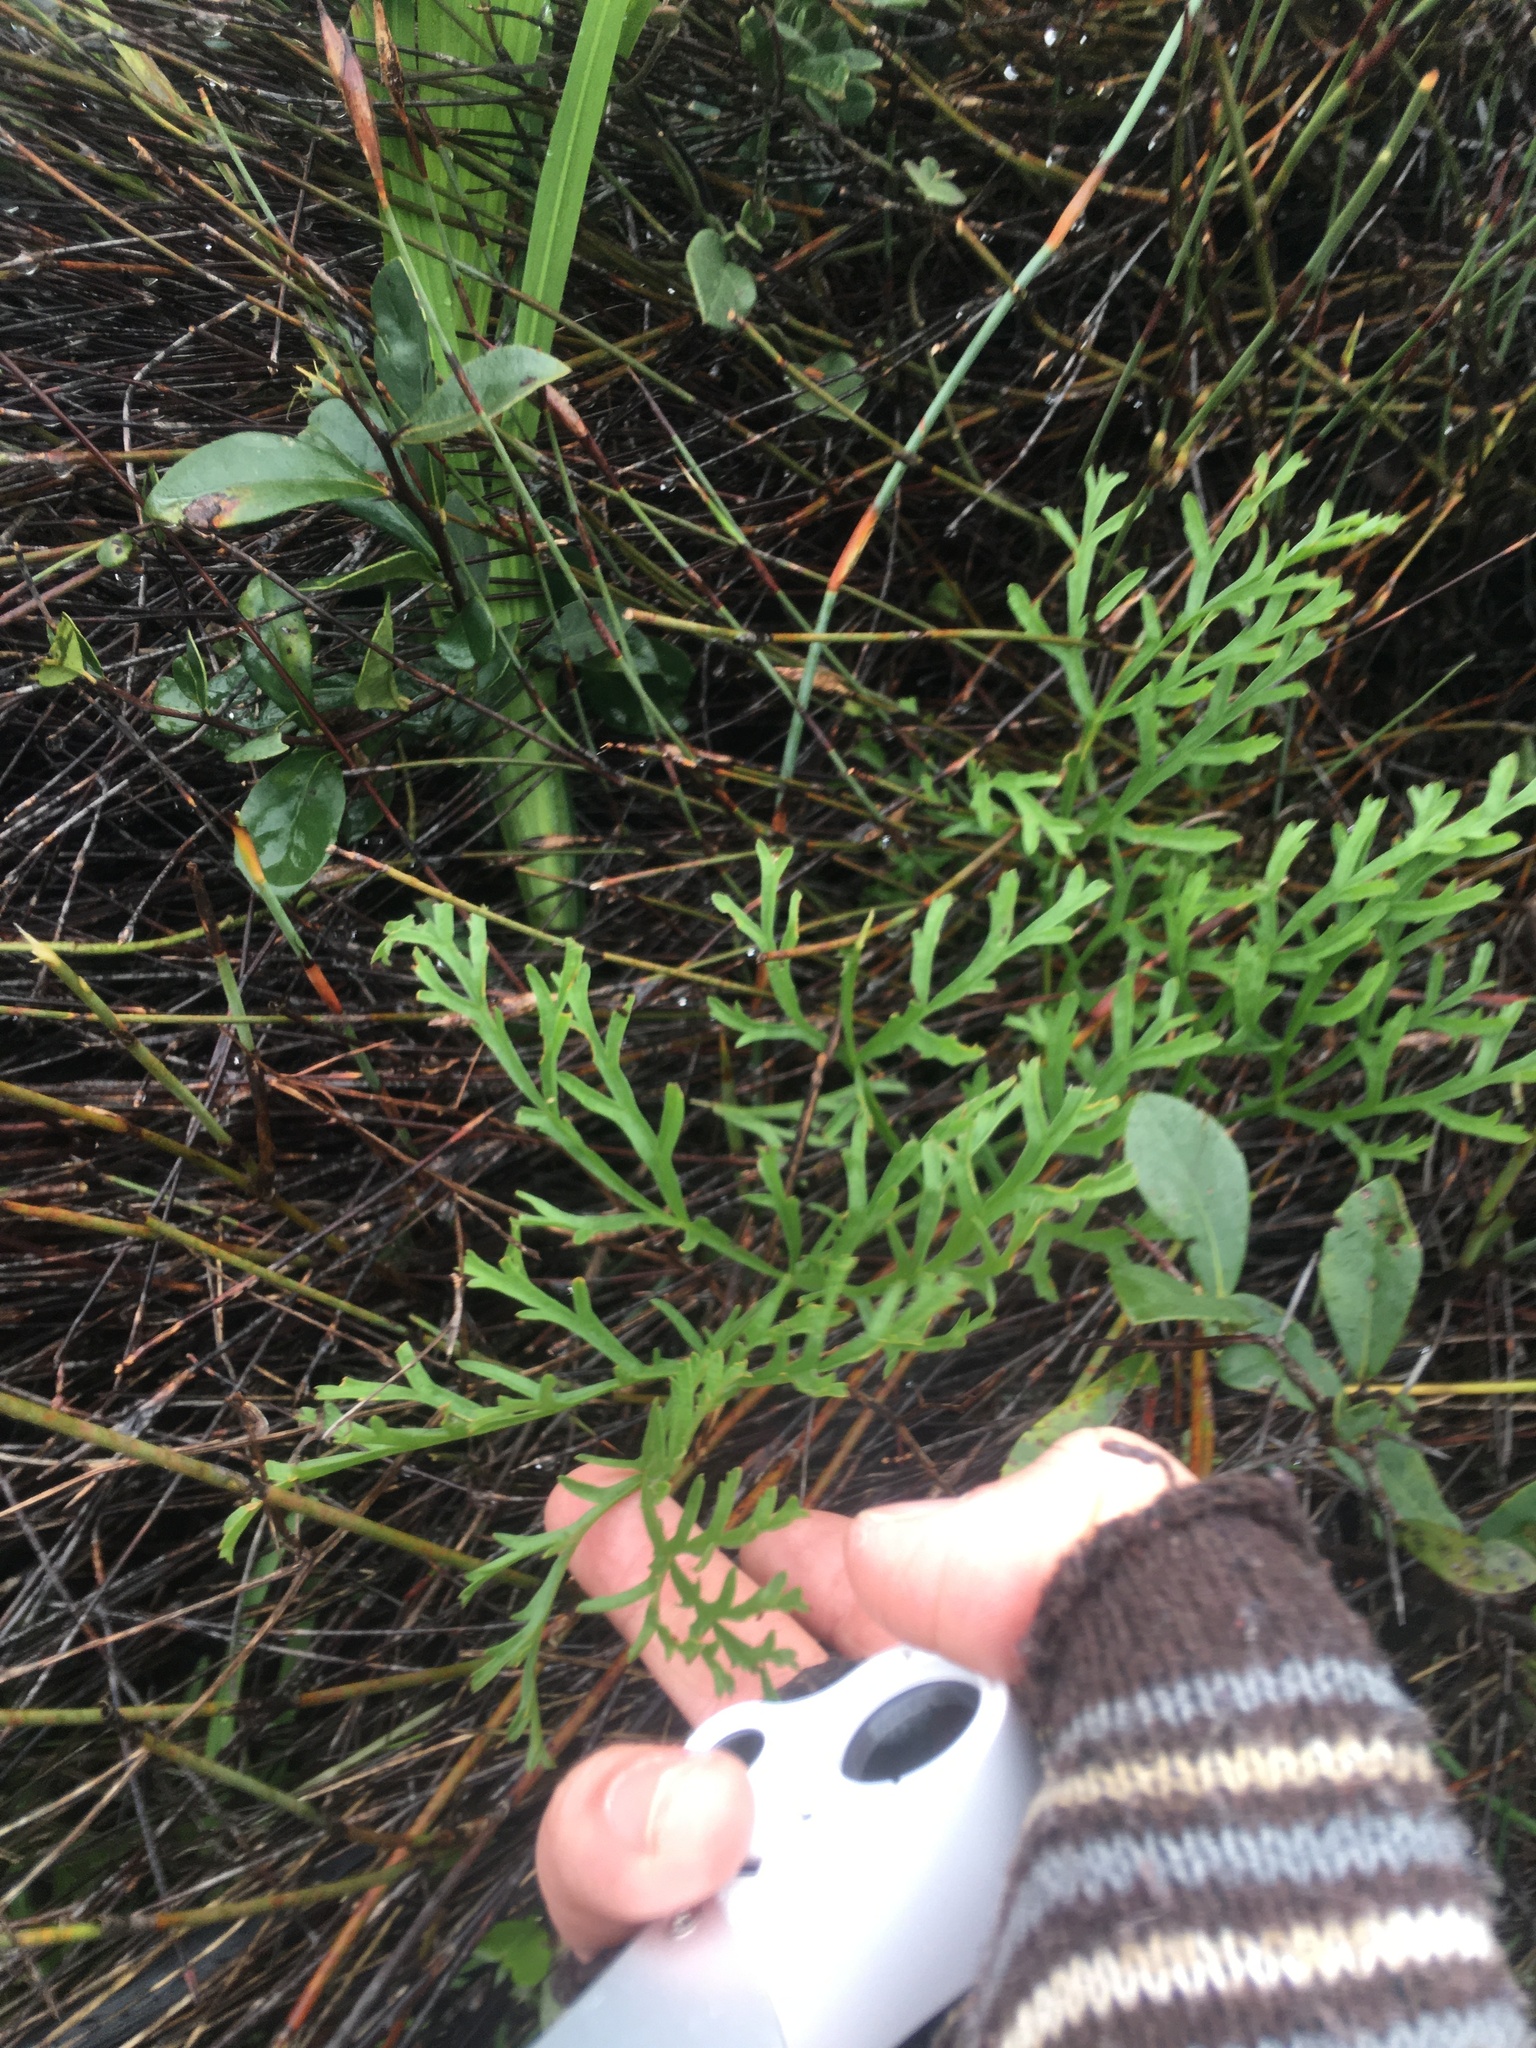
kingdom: Plantae
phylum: Tracheophyta
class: Magnoliopsida
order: Geraniales
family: Geraniaceae
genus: Pelargonium
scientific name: Pelargonium multiradiatum
